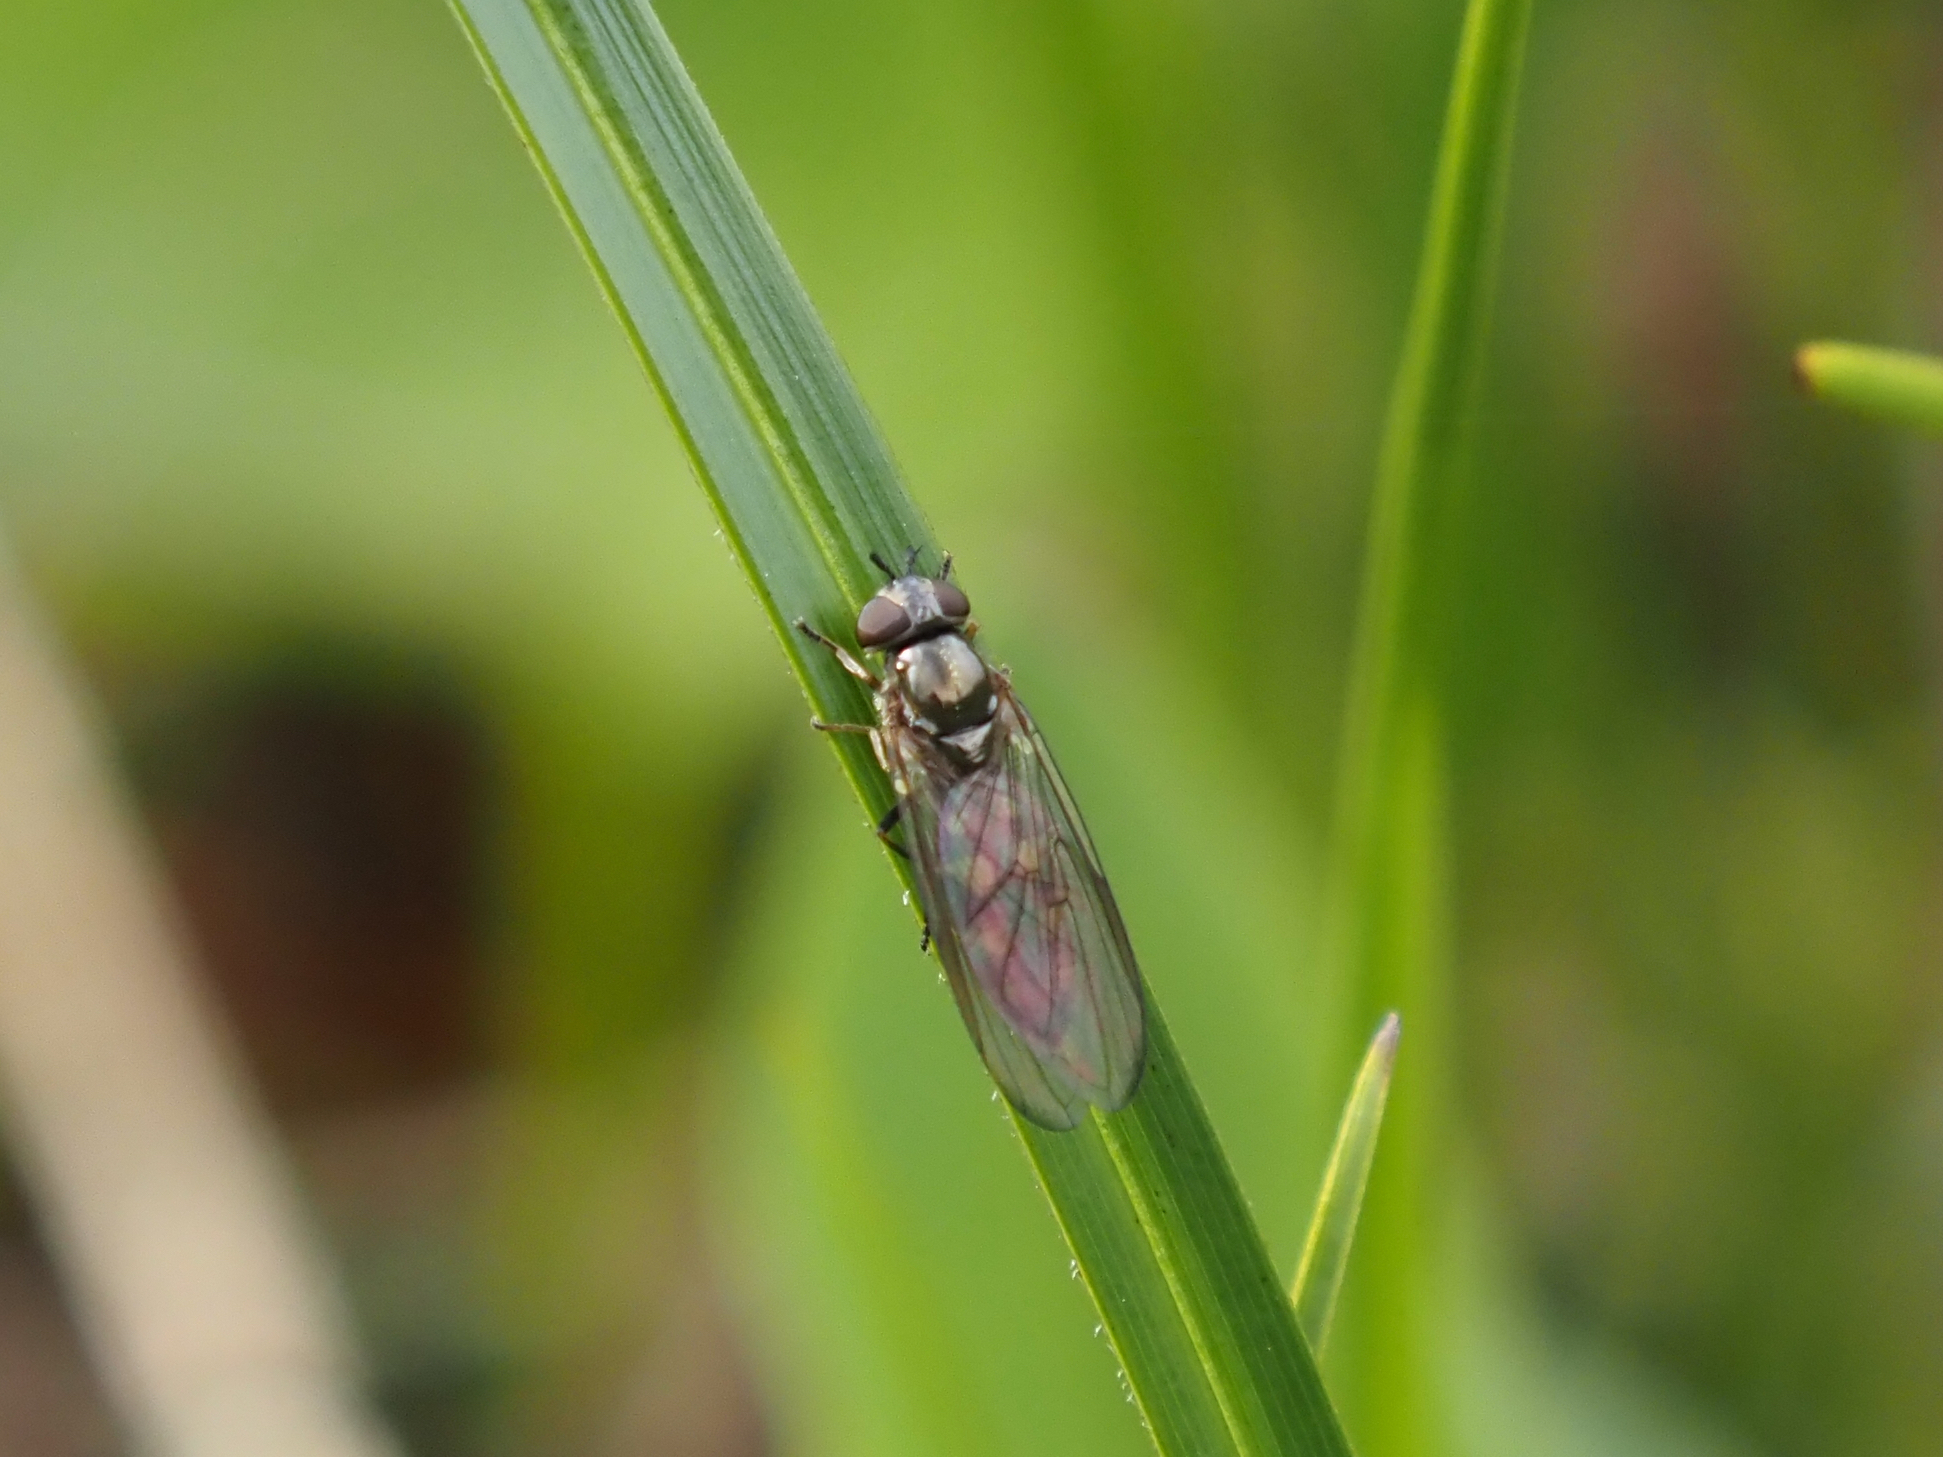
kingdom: Animalia
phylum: Arthropoda
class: Insecta
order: Diptera
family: Syrphidae
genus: Melanostoma
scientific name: Melanostoma mellina
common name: Hover fly
